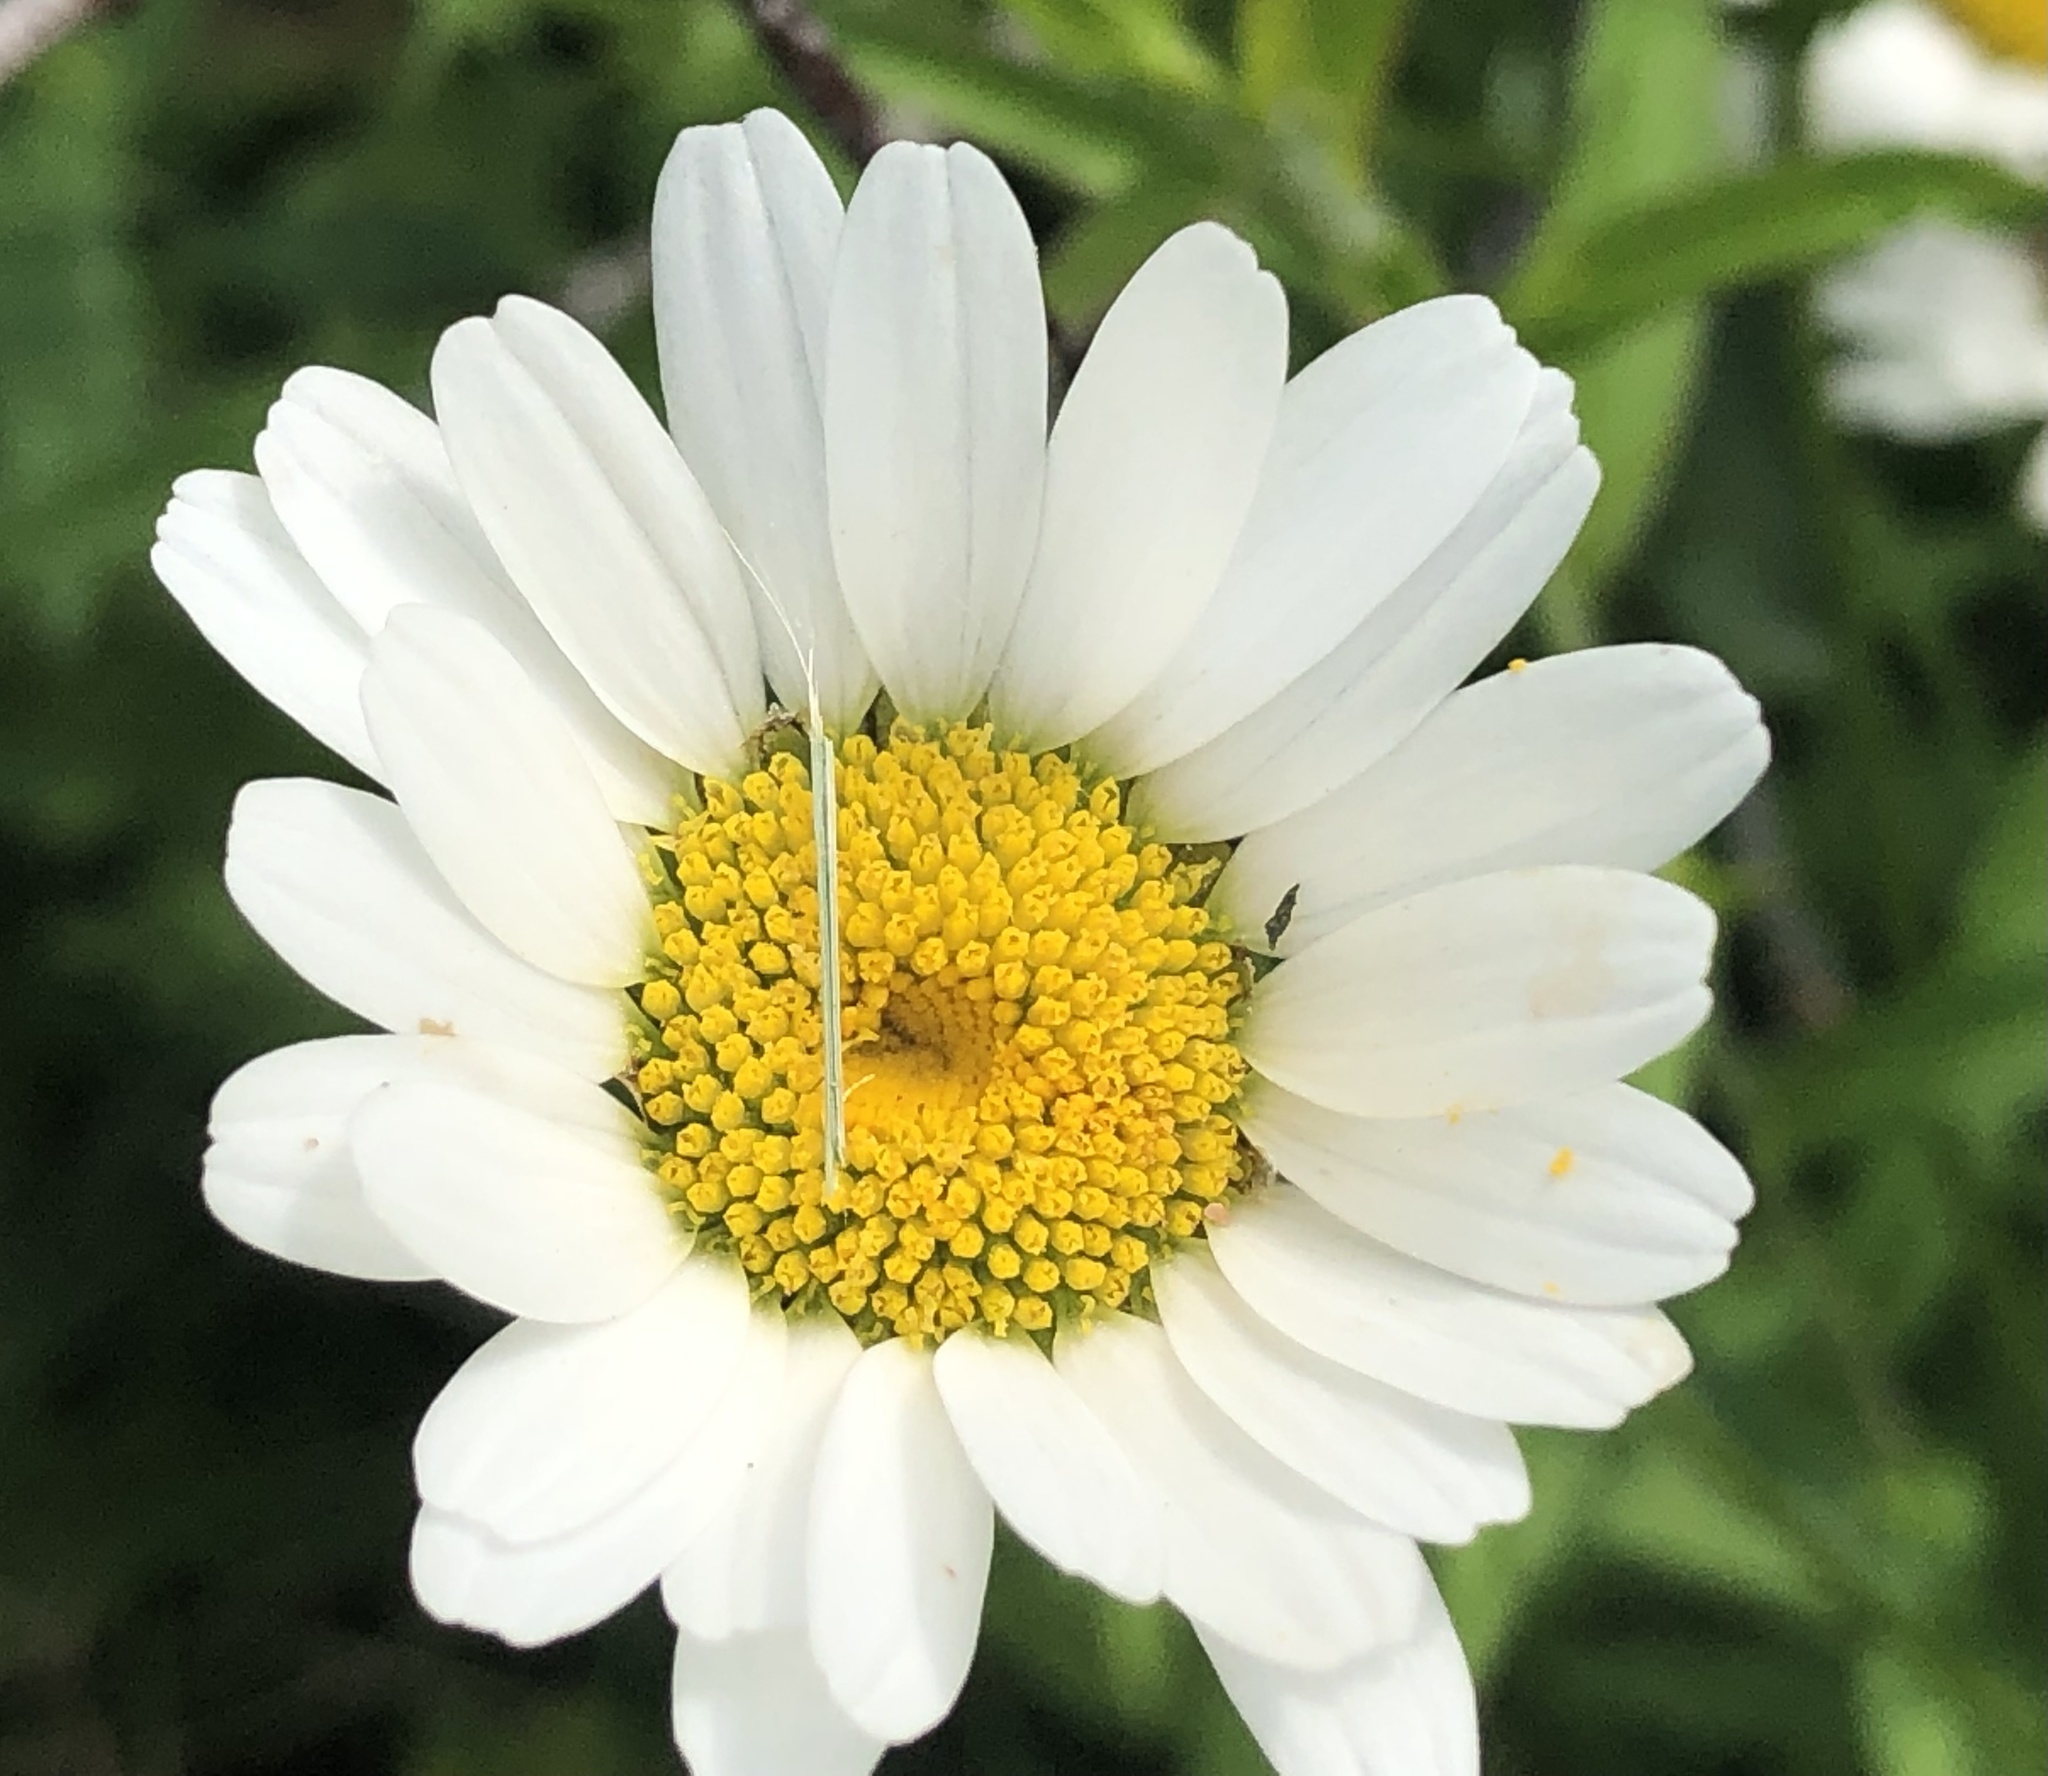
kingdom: Plantae
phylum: Tracheophyta
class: Magnoliopsida
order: Asterales
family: Asteraceae
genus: Leucanthemum
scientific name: Leucanthemum vulgare
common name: Oxeye daisy
